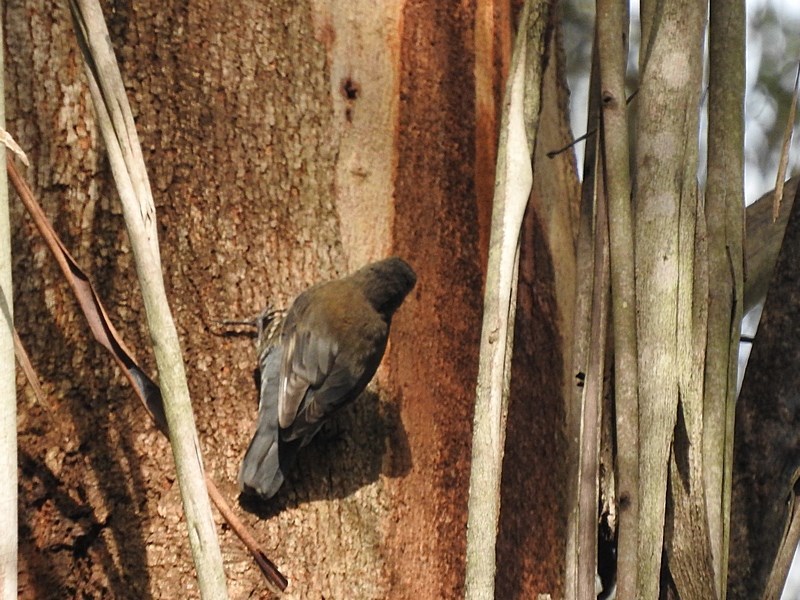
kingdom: Animalia
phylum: Chordata
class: Aves
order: Passeriformes
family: Climacteridae
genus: Cormobates
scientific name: Cormobates leucophaea
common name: White-throated treecreeper
